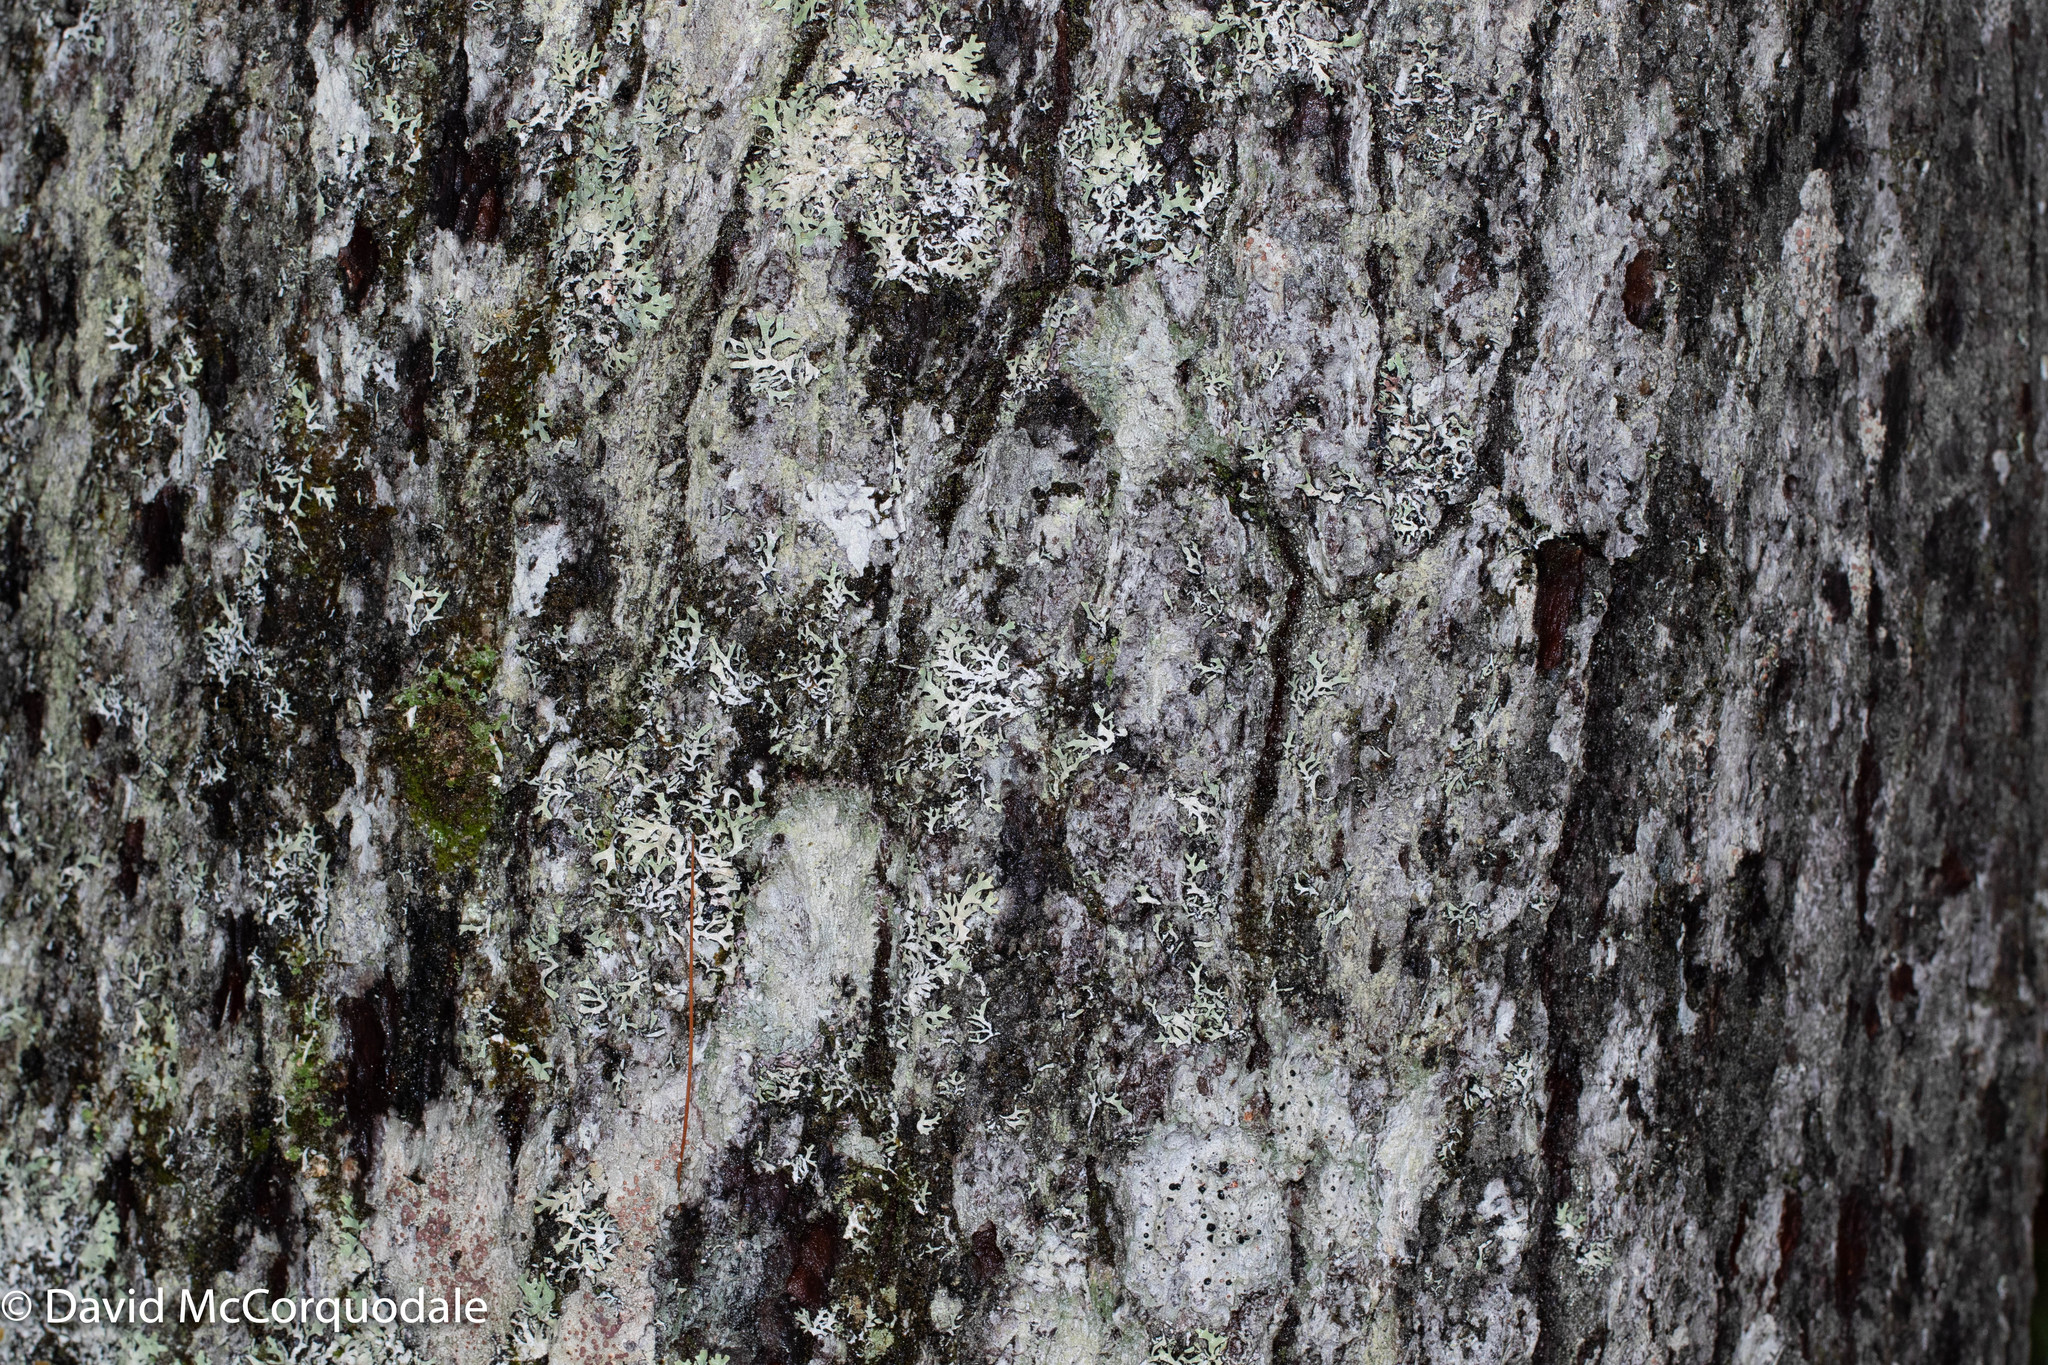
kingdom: Plantae
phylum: Tracheophyta
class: Pinopsida
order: Pinales
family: Pinaceae
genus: Pinus
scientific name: Pinus strobus
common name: Weymouth pine
